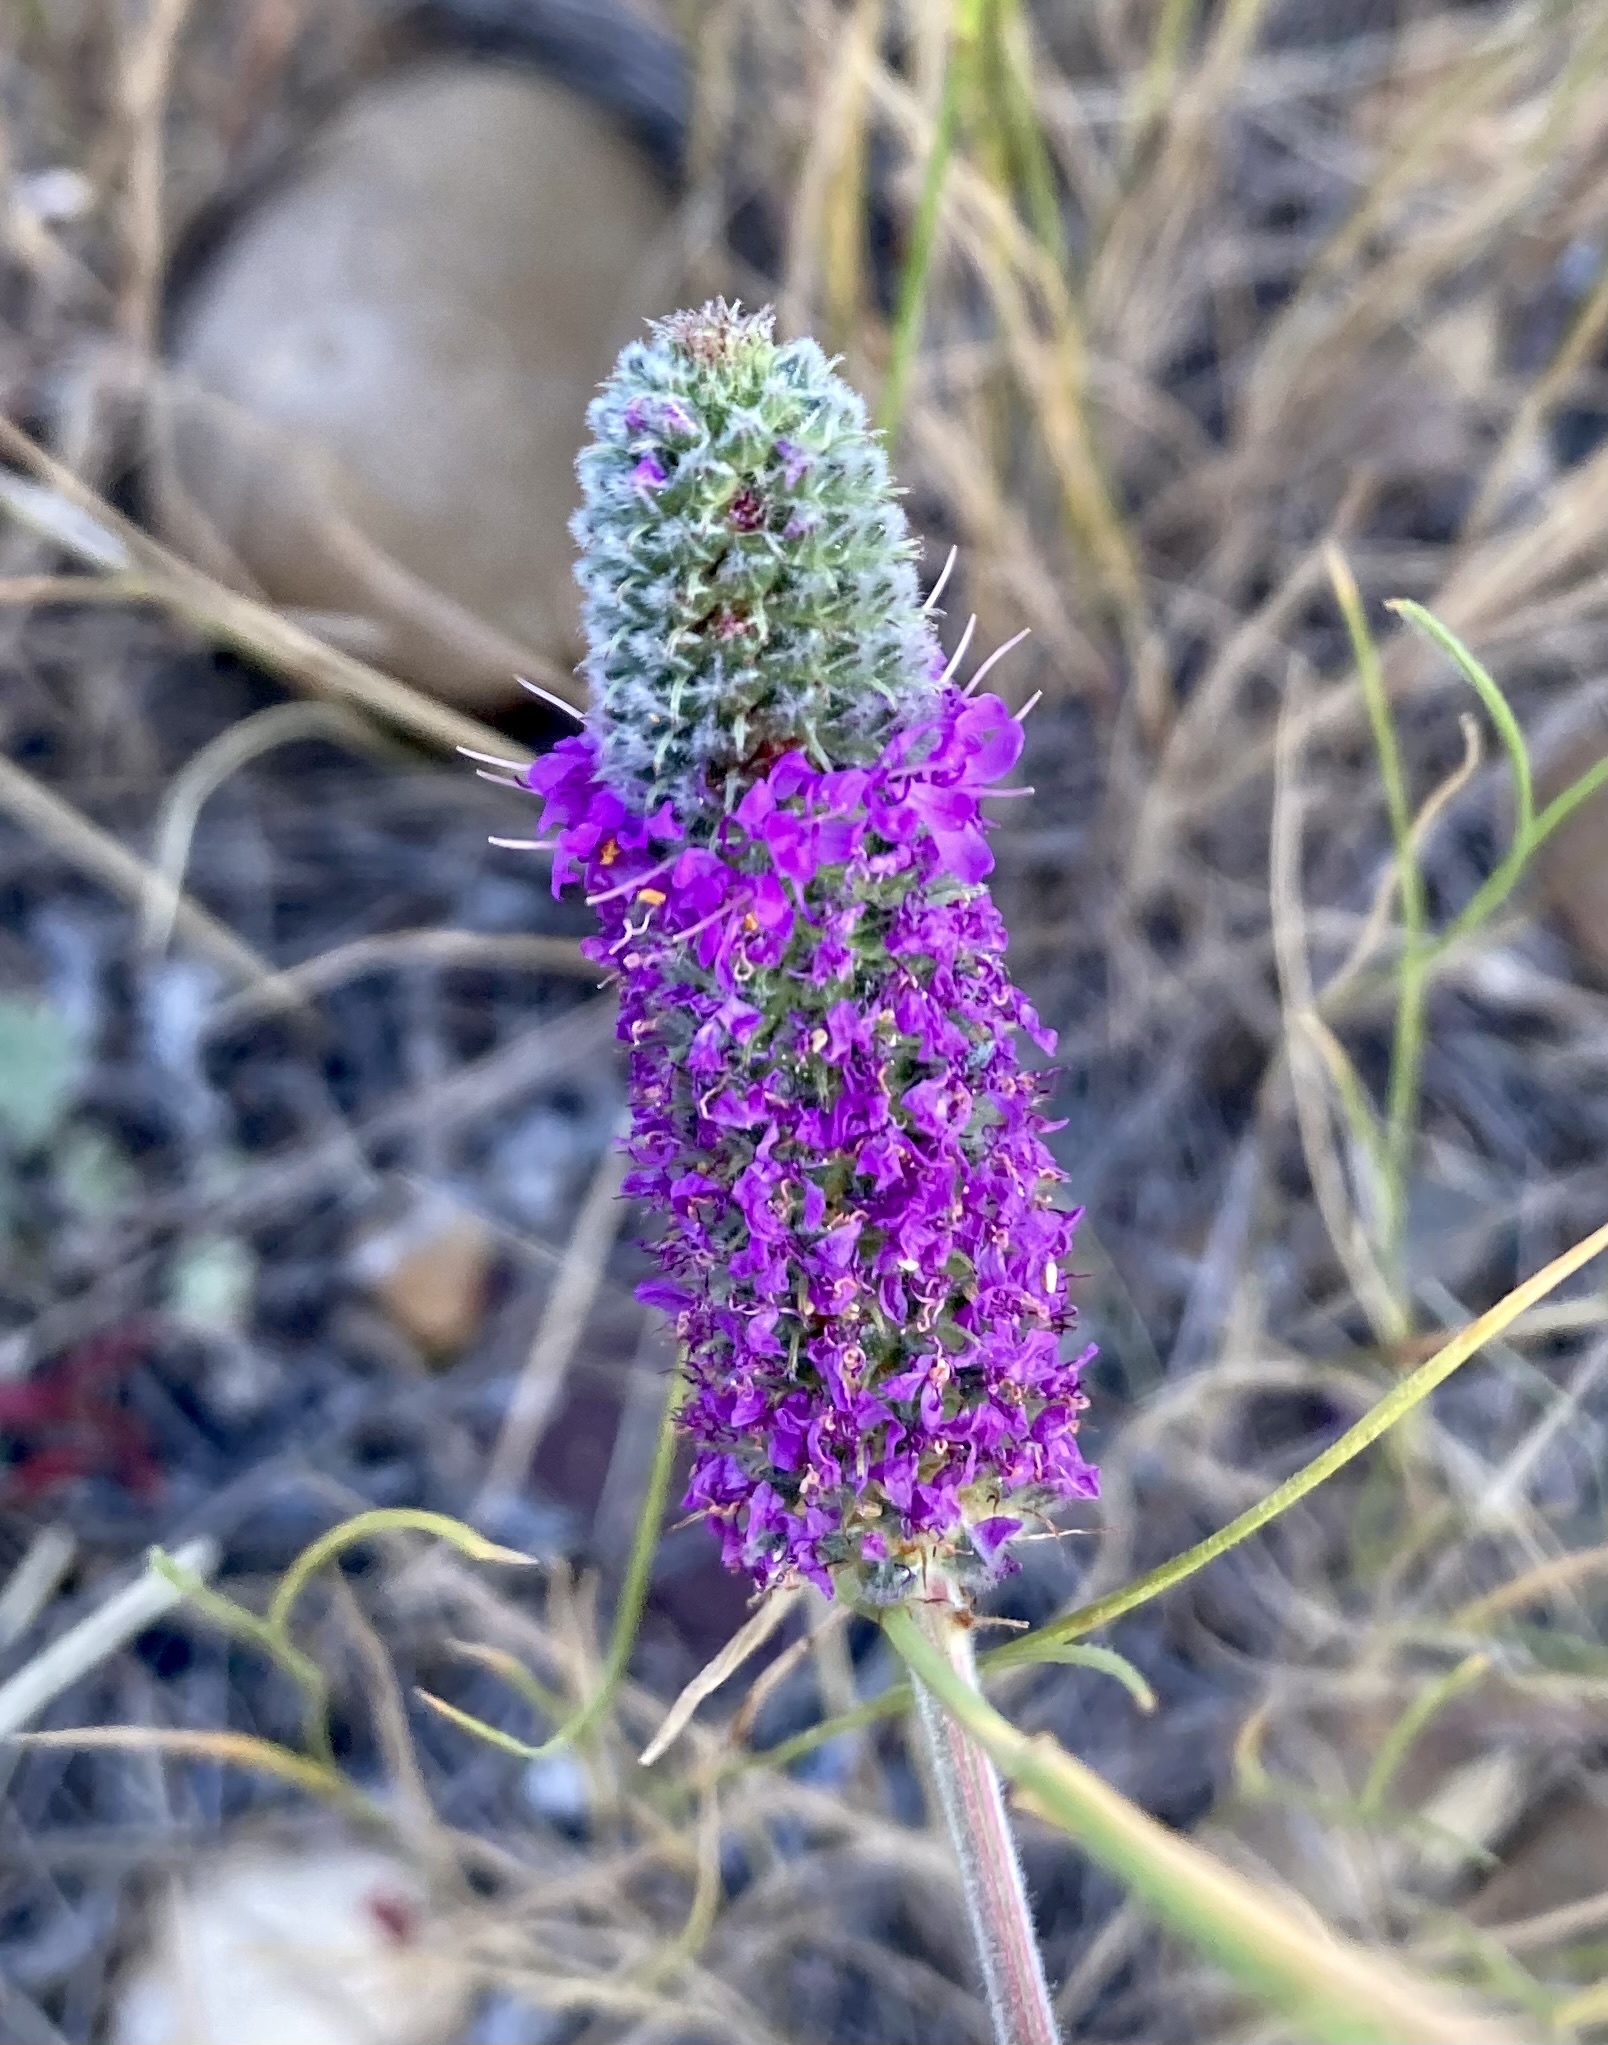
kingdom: Plantae
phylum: Tracheophyta
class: Magnoliopsida
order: Fabales
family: Fabaceae
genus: Dalea
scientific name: Dalea purpurea
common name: Purple prairie-clover
